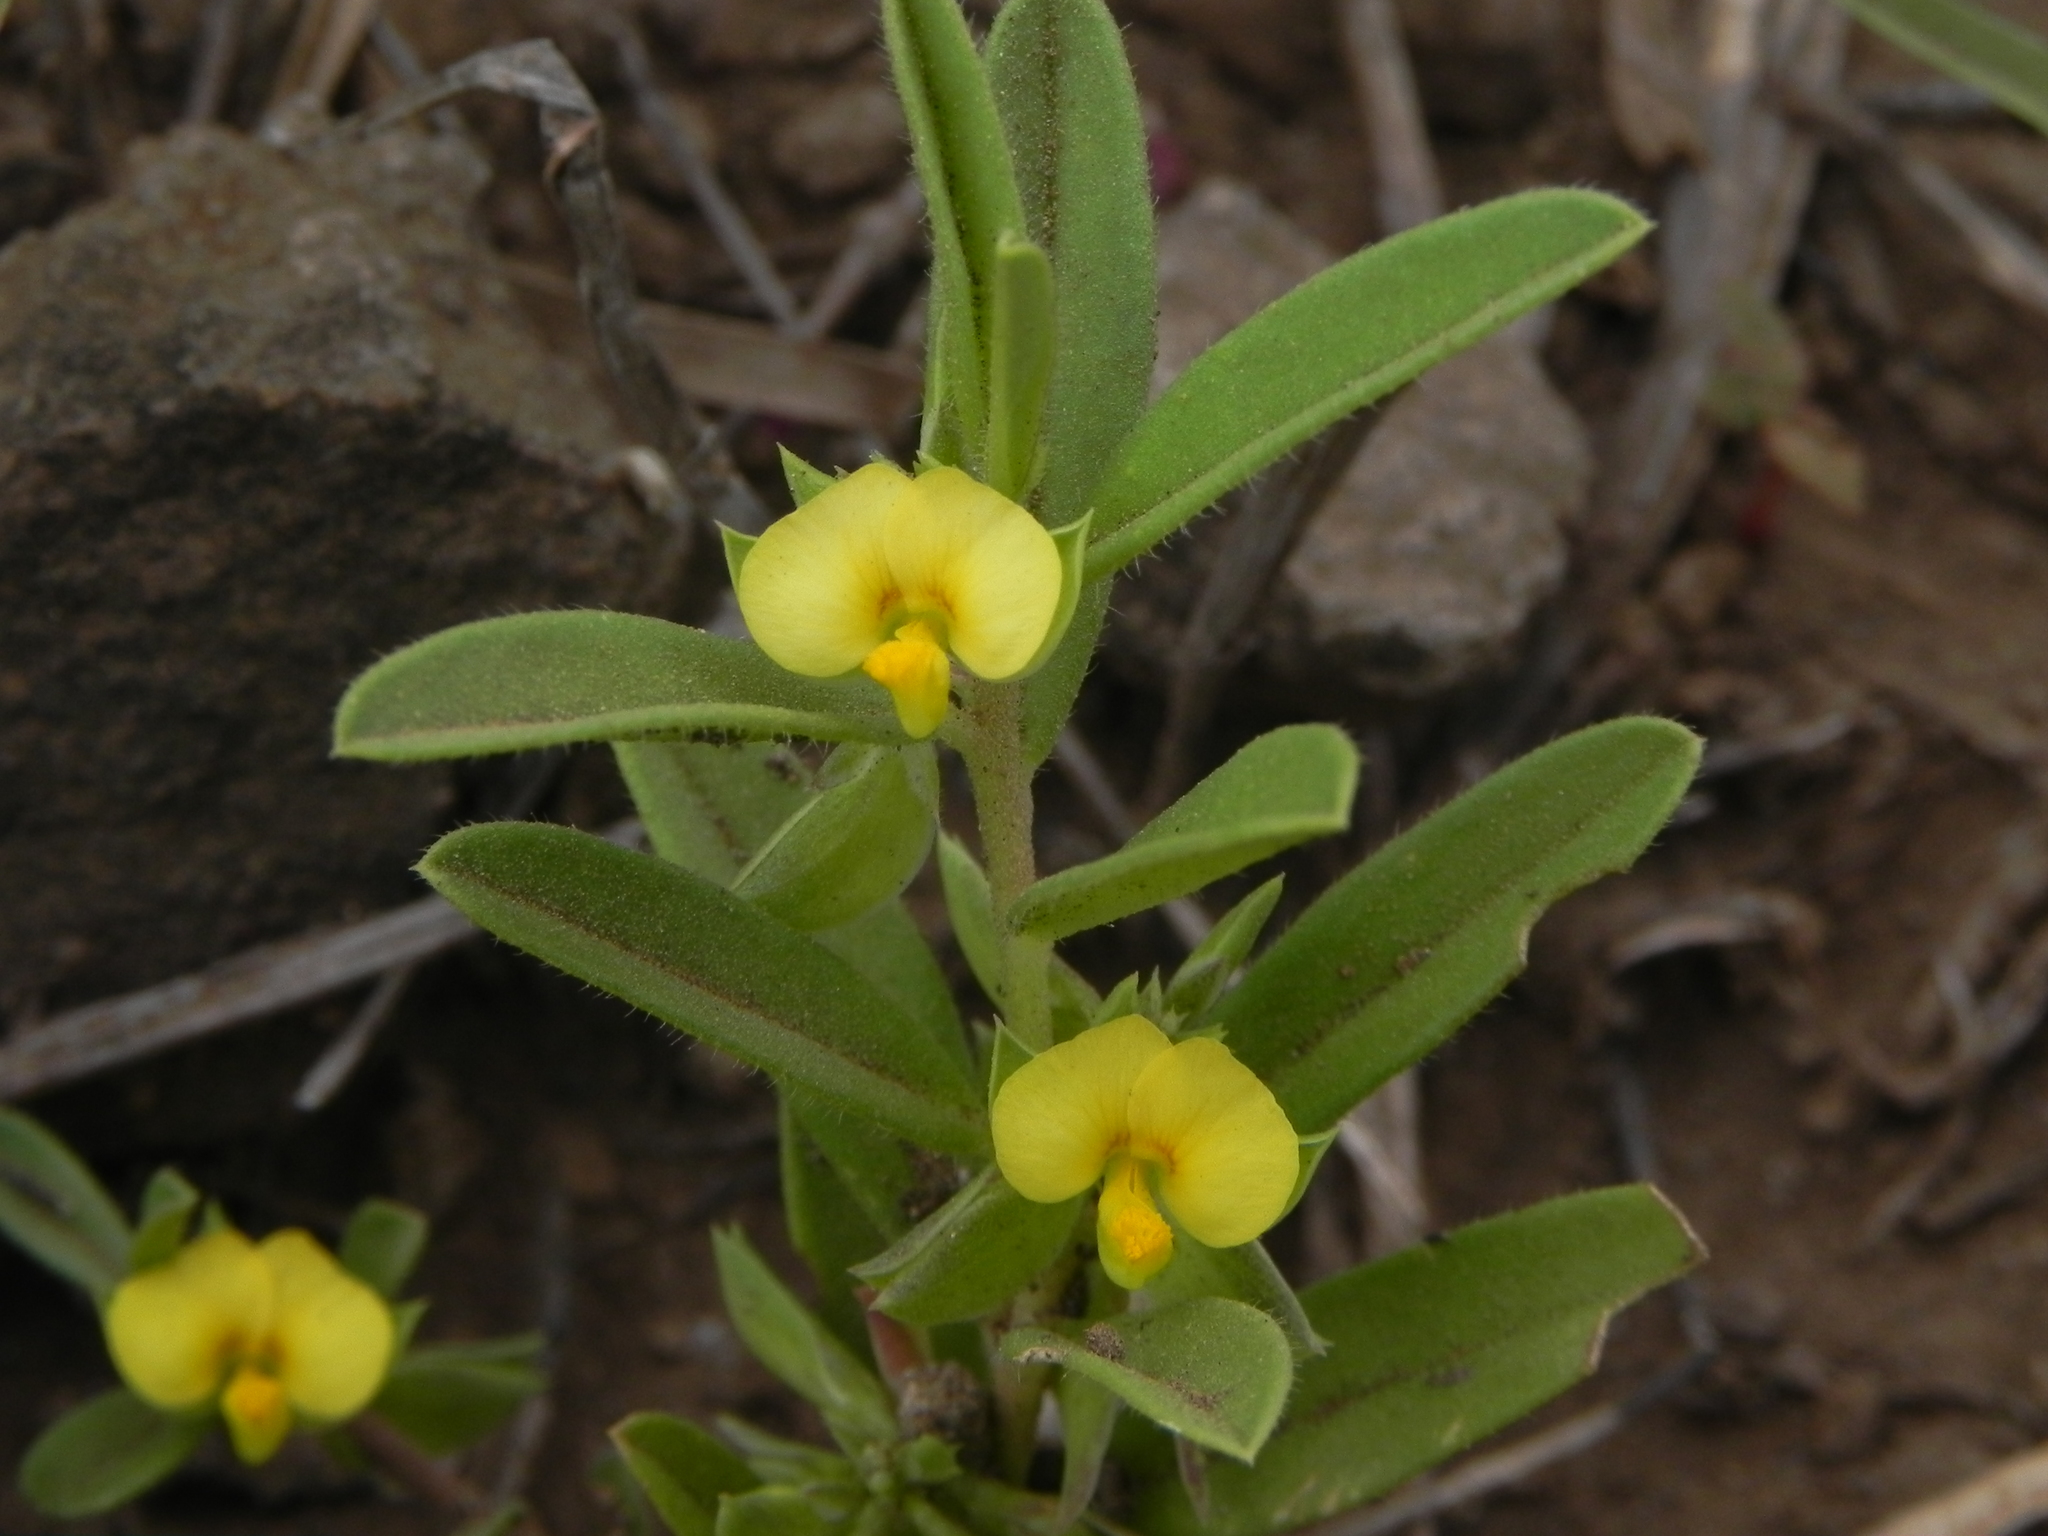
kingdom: Plantae
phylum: Tracheophyta
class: Magnoliopsida
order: Fabales
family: Polygalaceae
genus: Polygala
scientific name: Polygala arvensis
